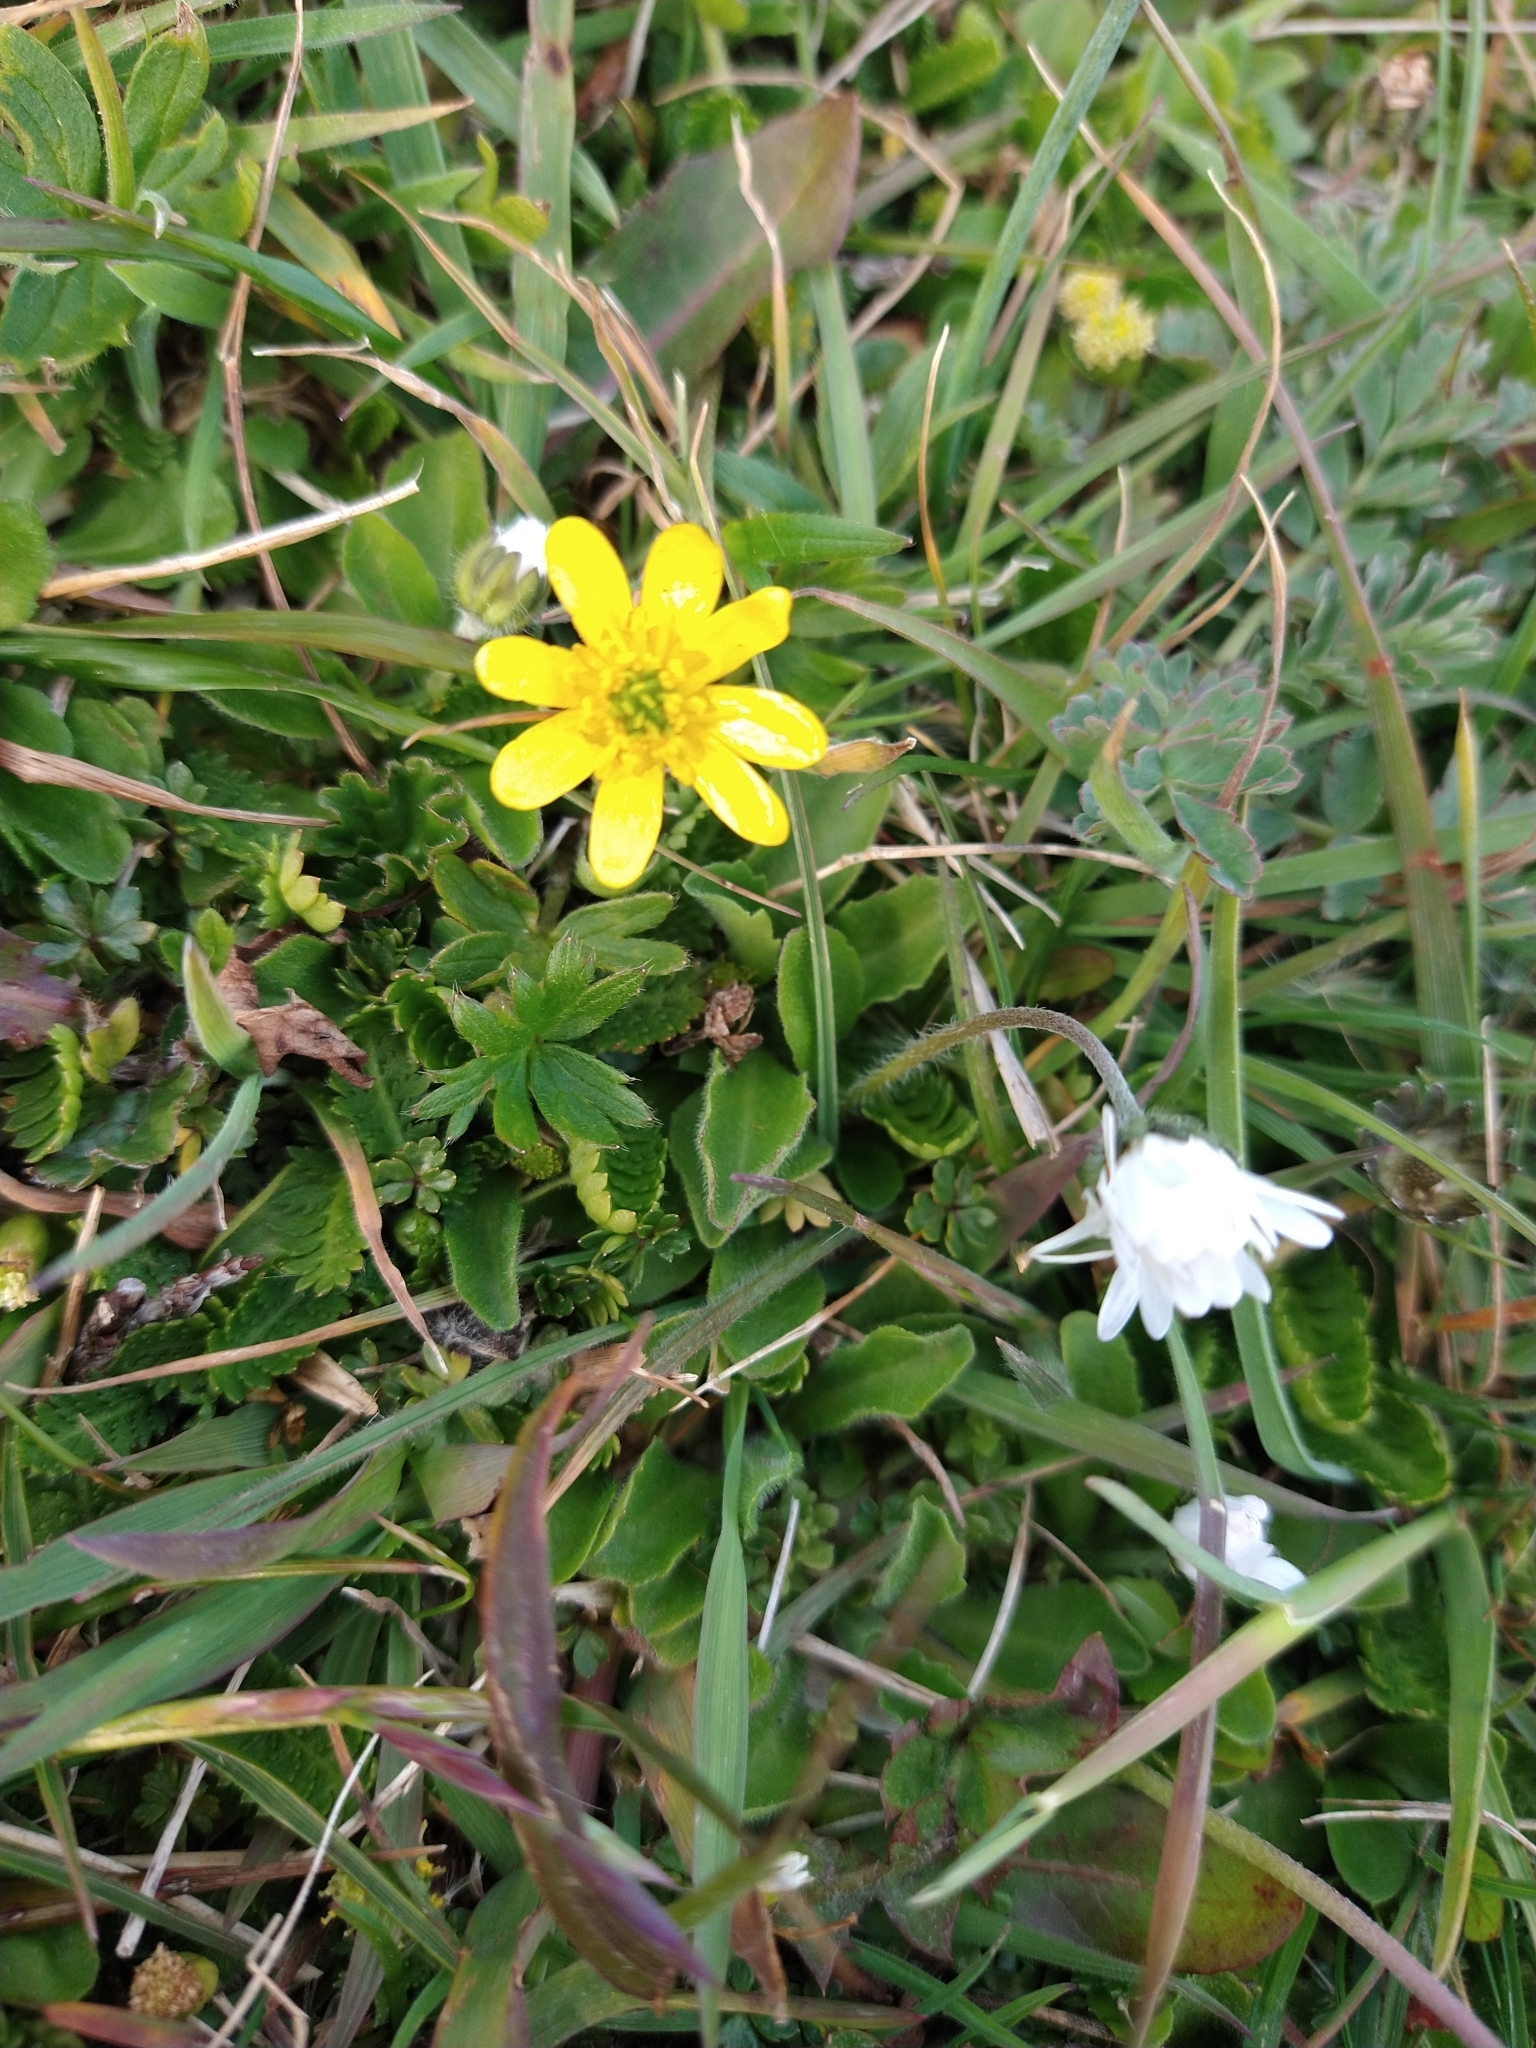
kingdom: Plantae
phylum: Tracheophyta
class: Magnoliopsida
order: Ranunculales
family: Ranunculaceae
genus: Ranunculus
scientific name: Ranunculus peduncularis
